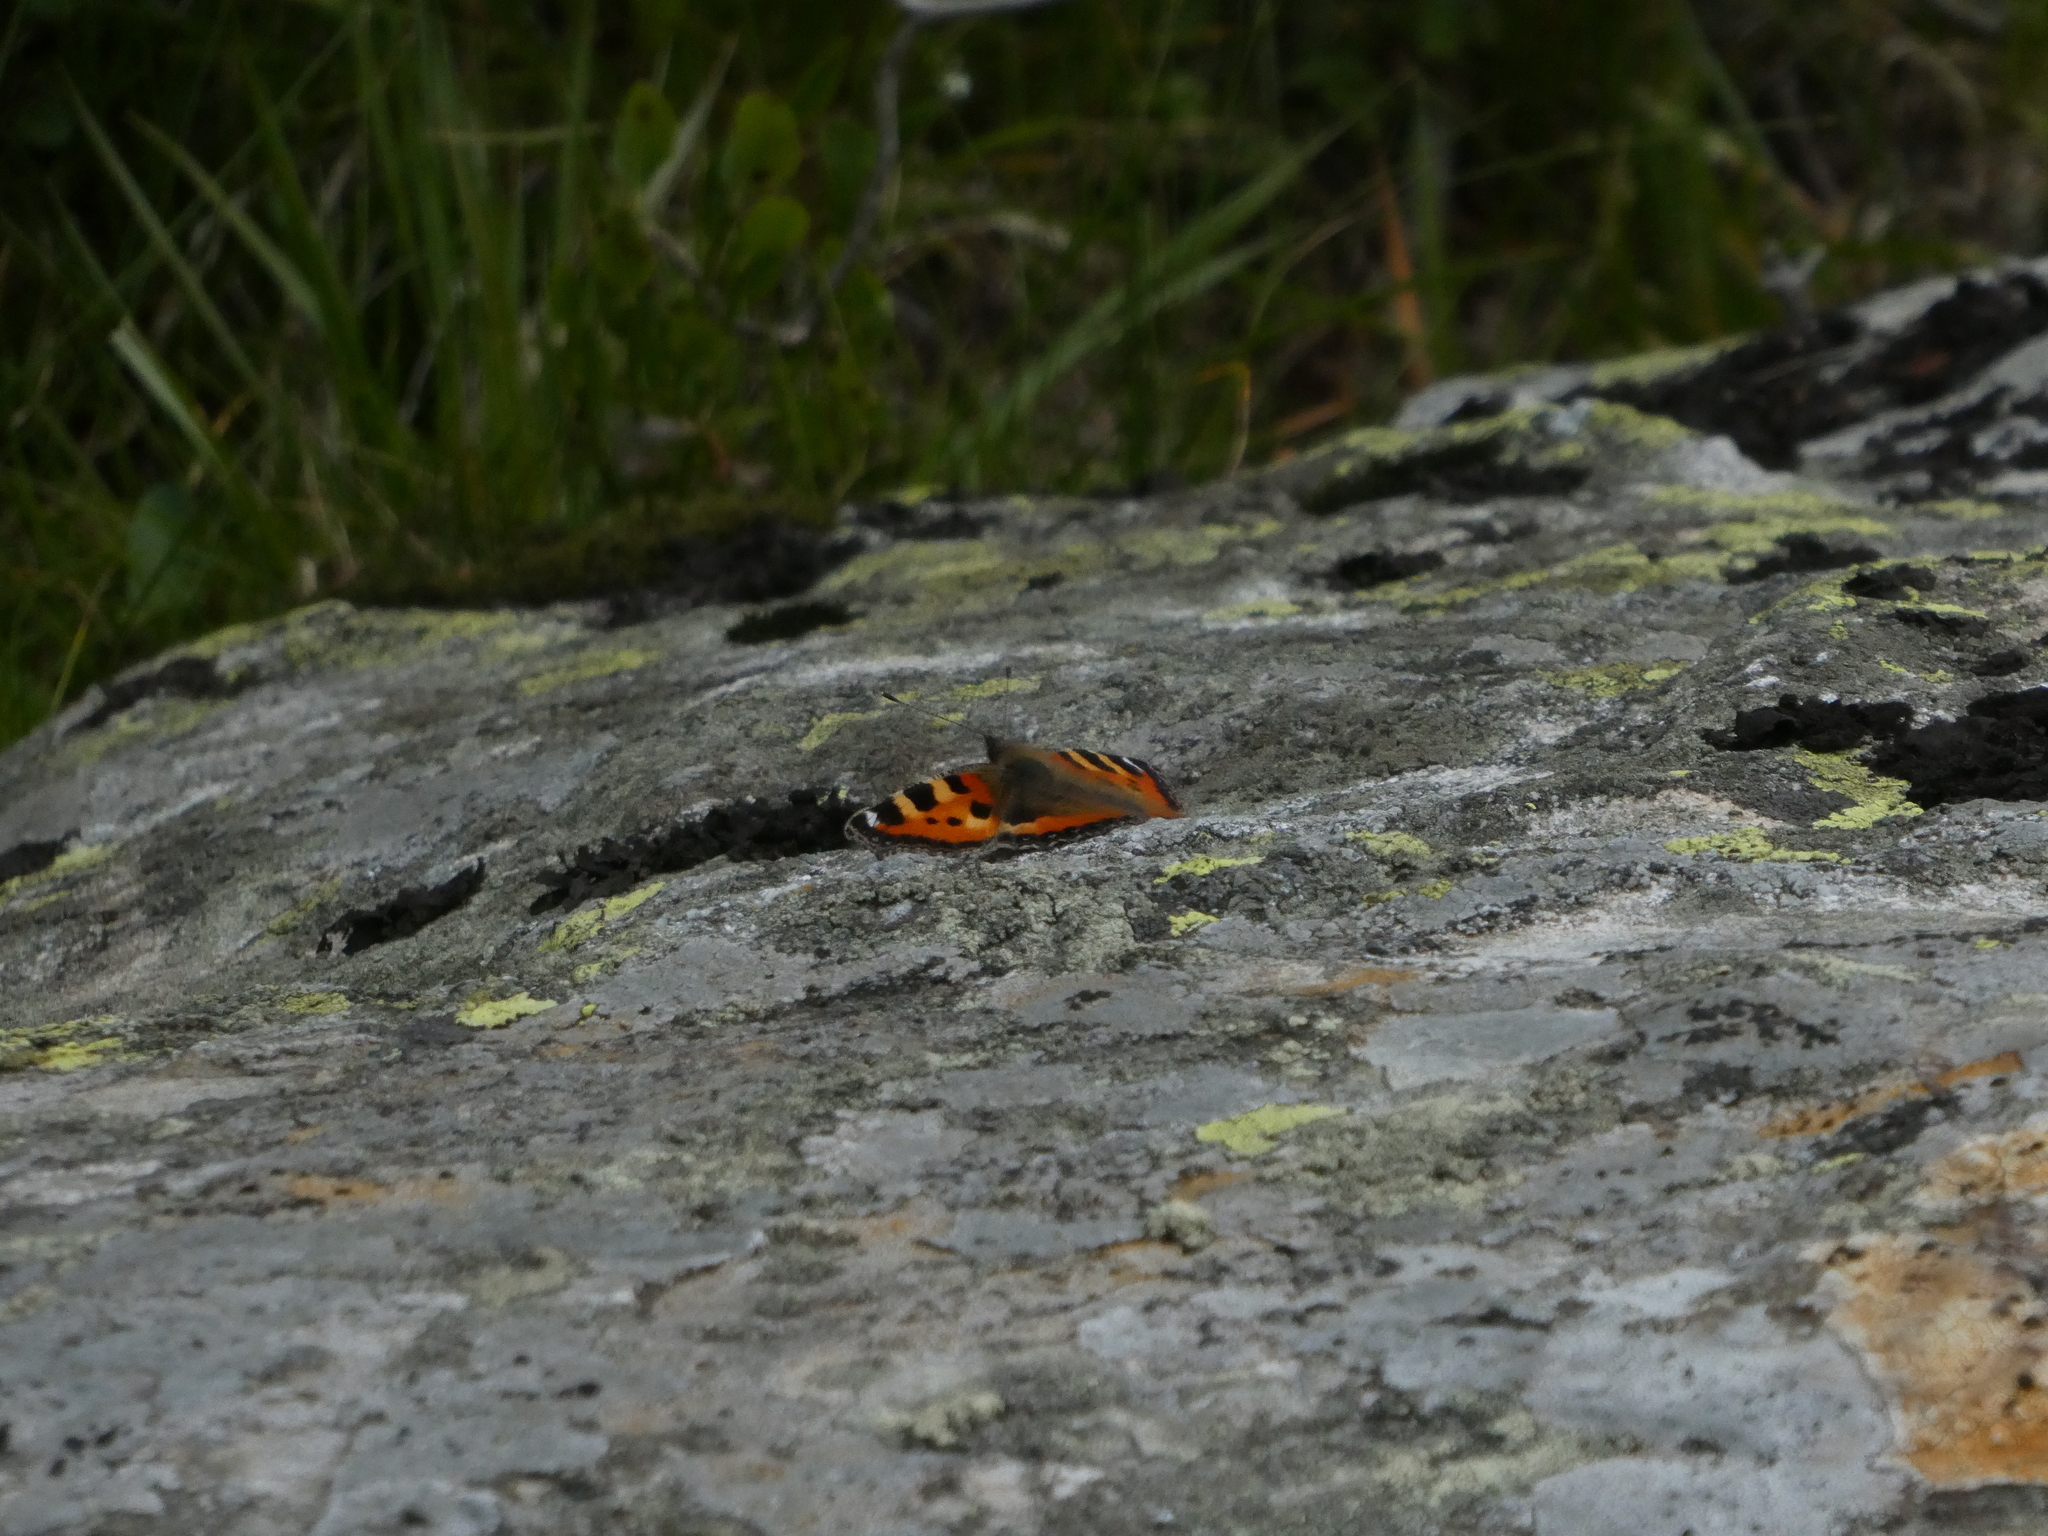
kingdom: Animalia
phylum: Arthropoda
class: Insecta
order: Lepidoptera
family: Nymphalidae
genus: Aglais
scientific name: Aglais urticae
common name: Small tortoiseshell
